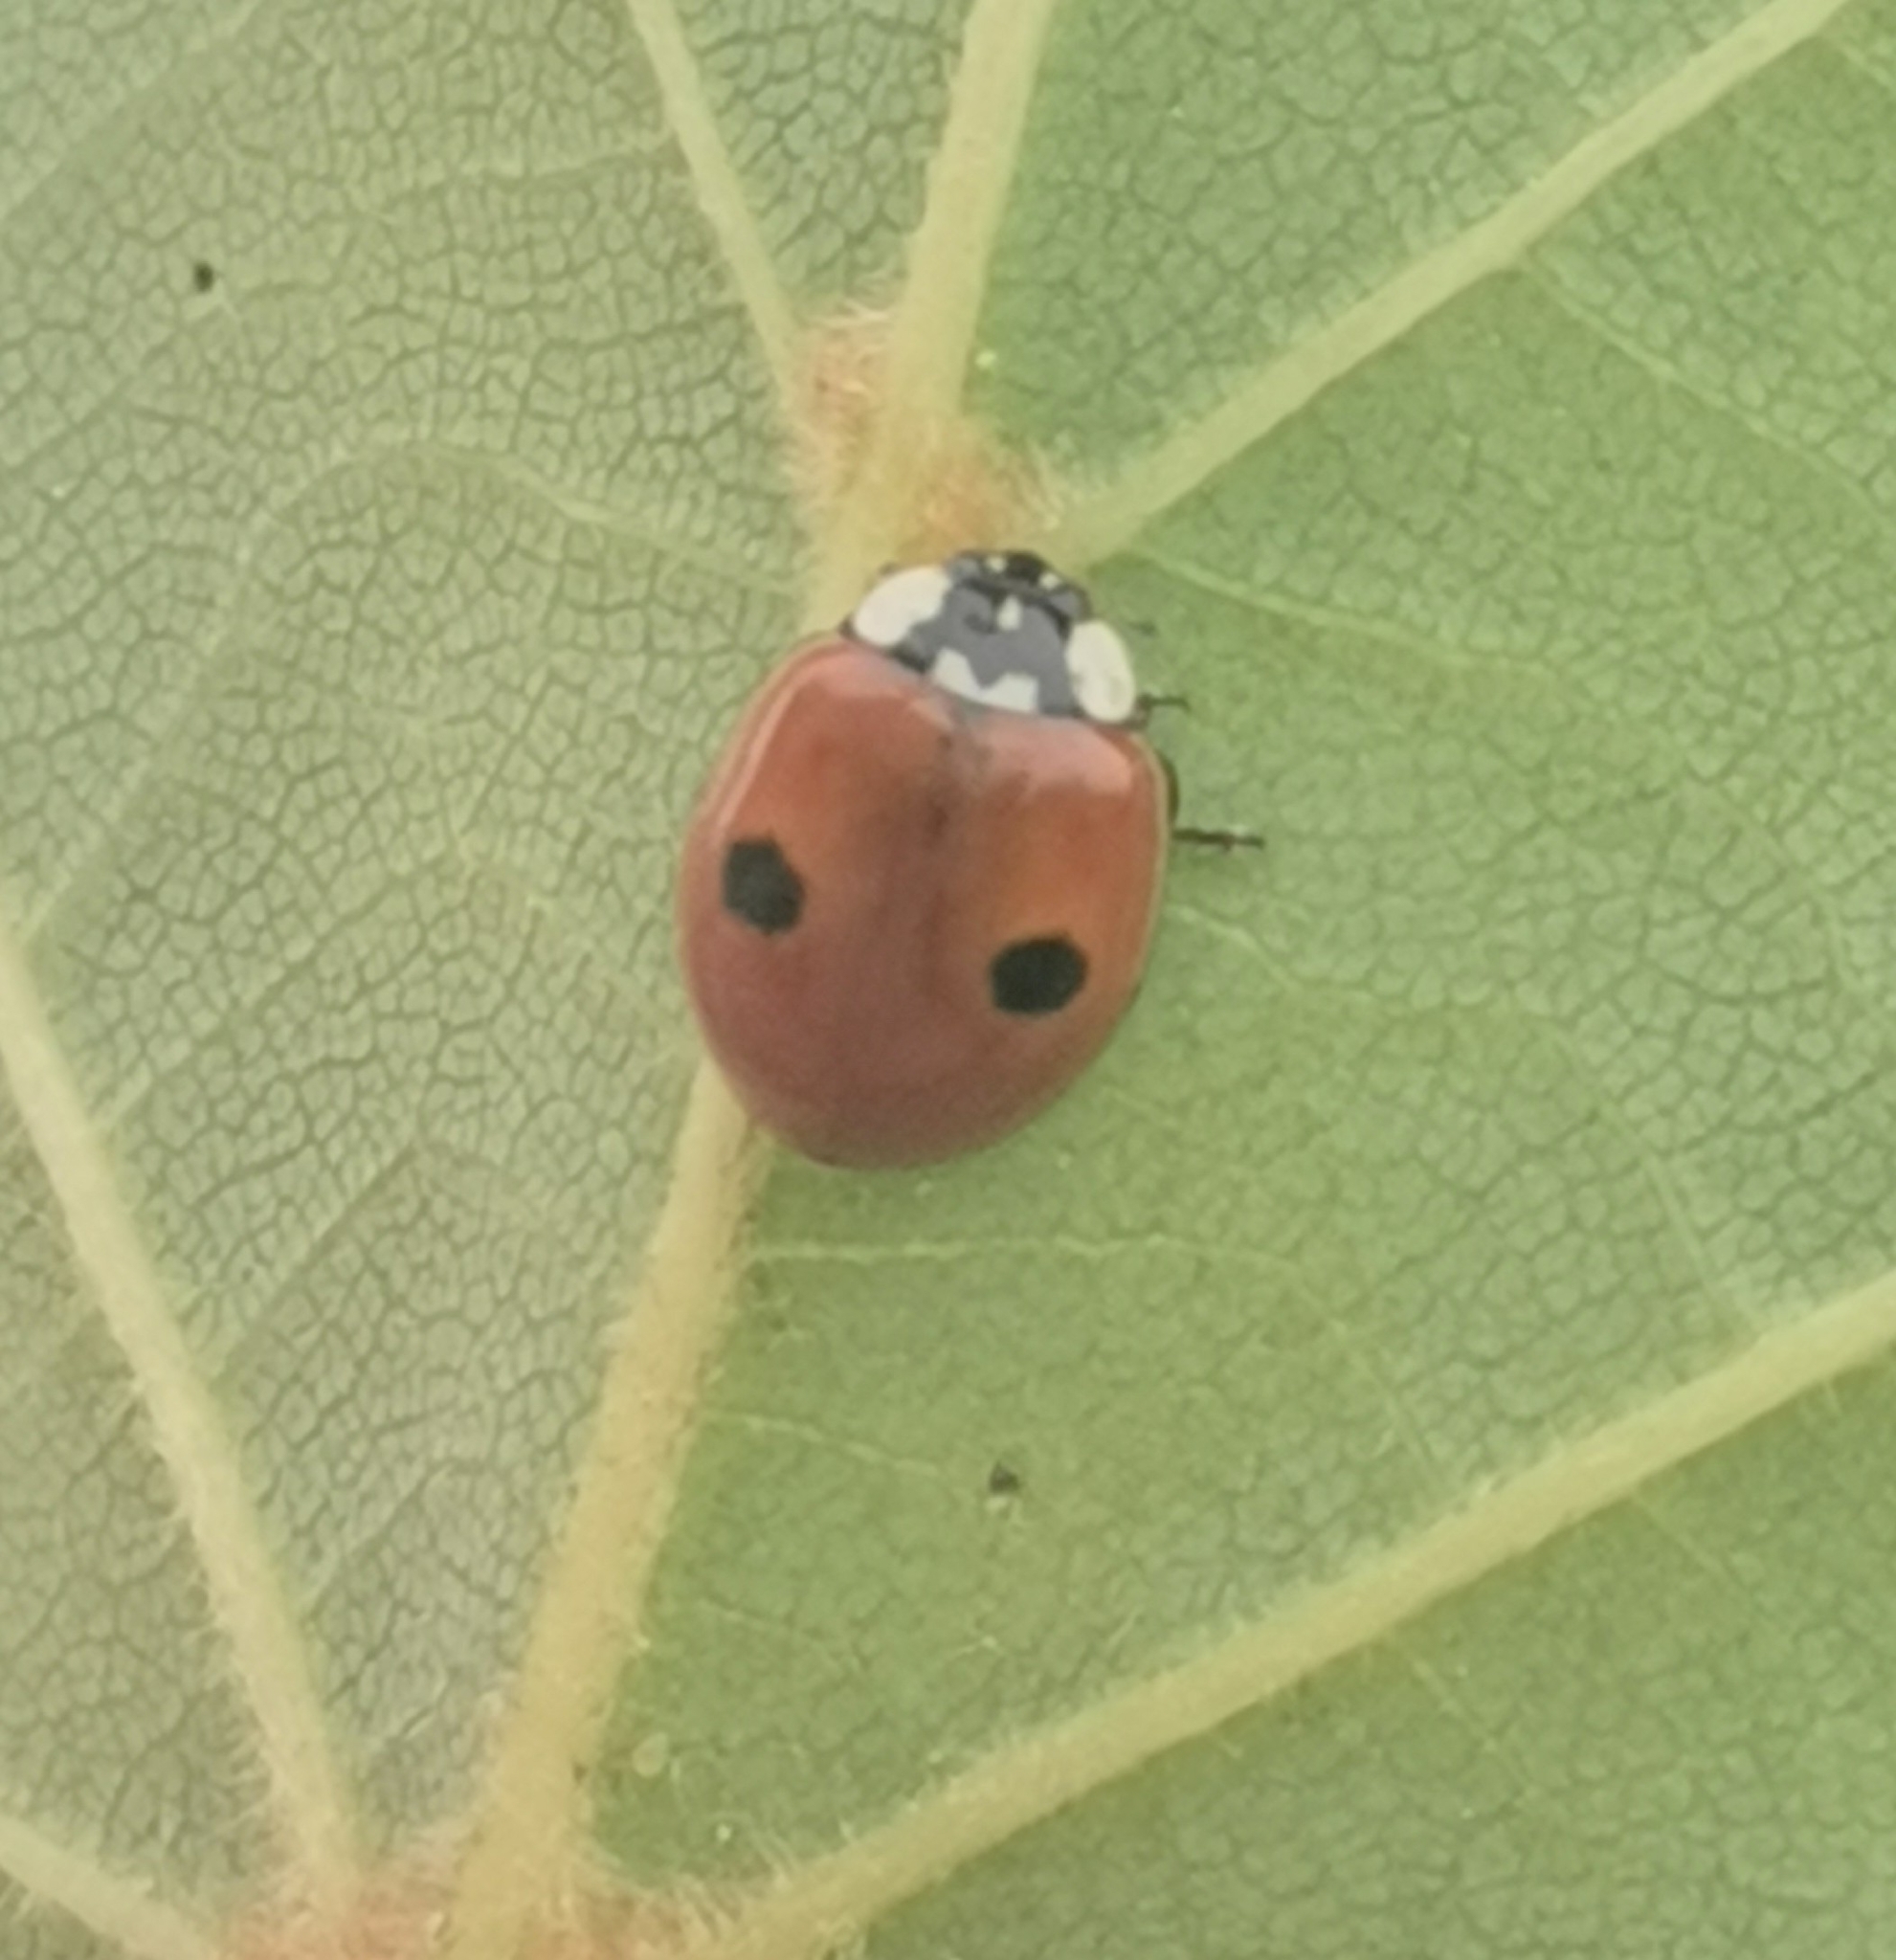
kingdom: Animalia
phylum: Arthropoda
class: Insecta
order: Coleoptera
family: Coccinellidae
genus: Adalia
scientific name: Adalia bipunctata
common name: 2-spot ladybird
